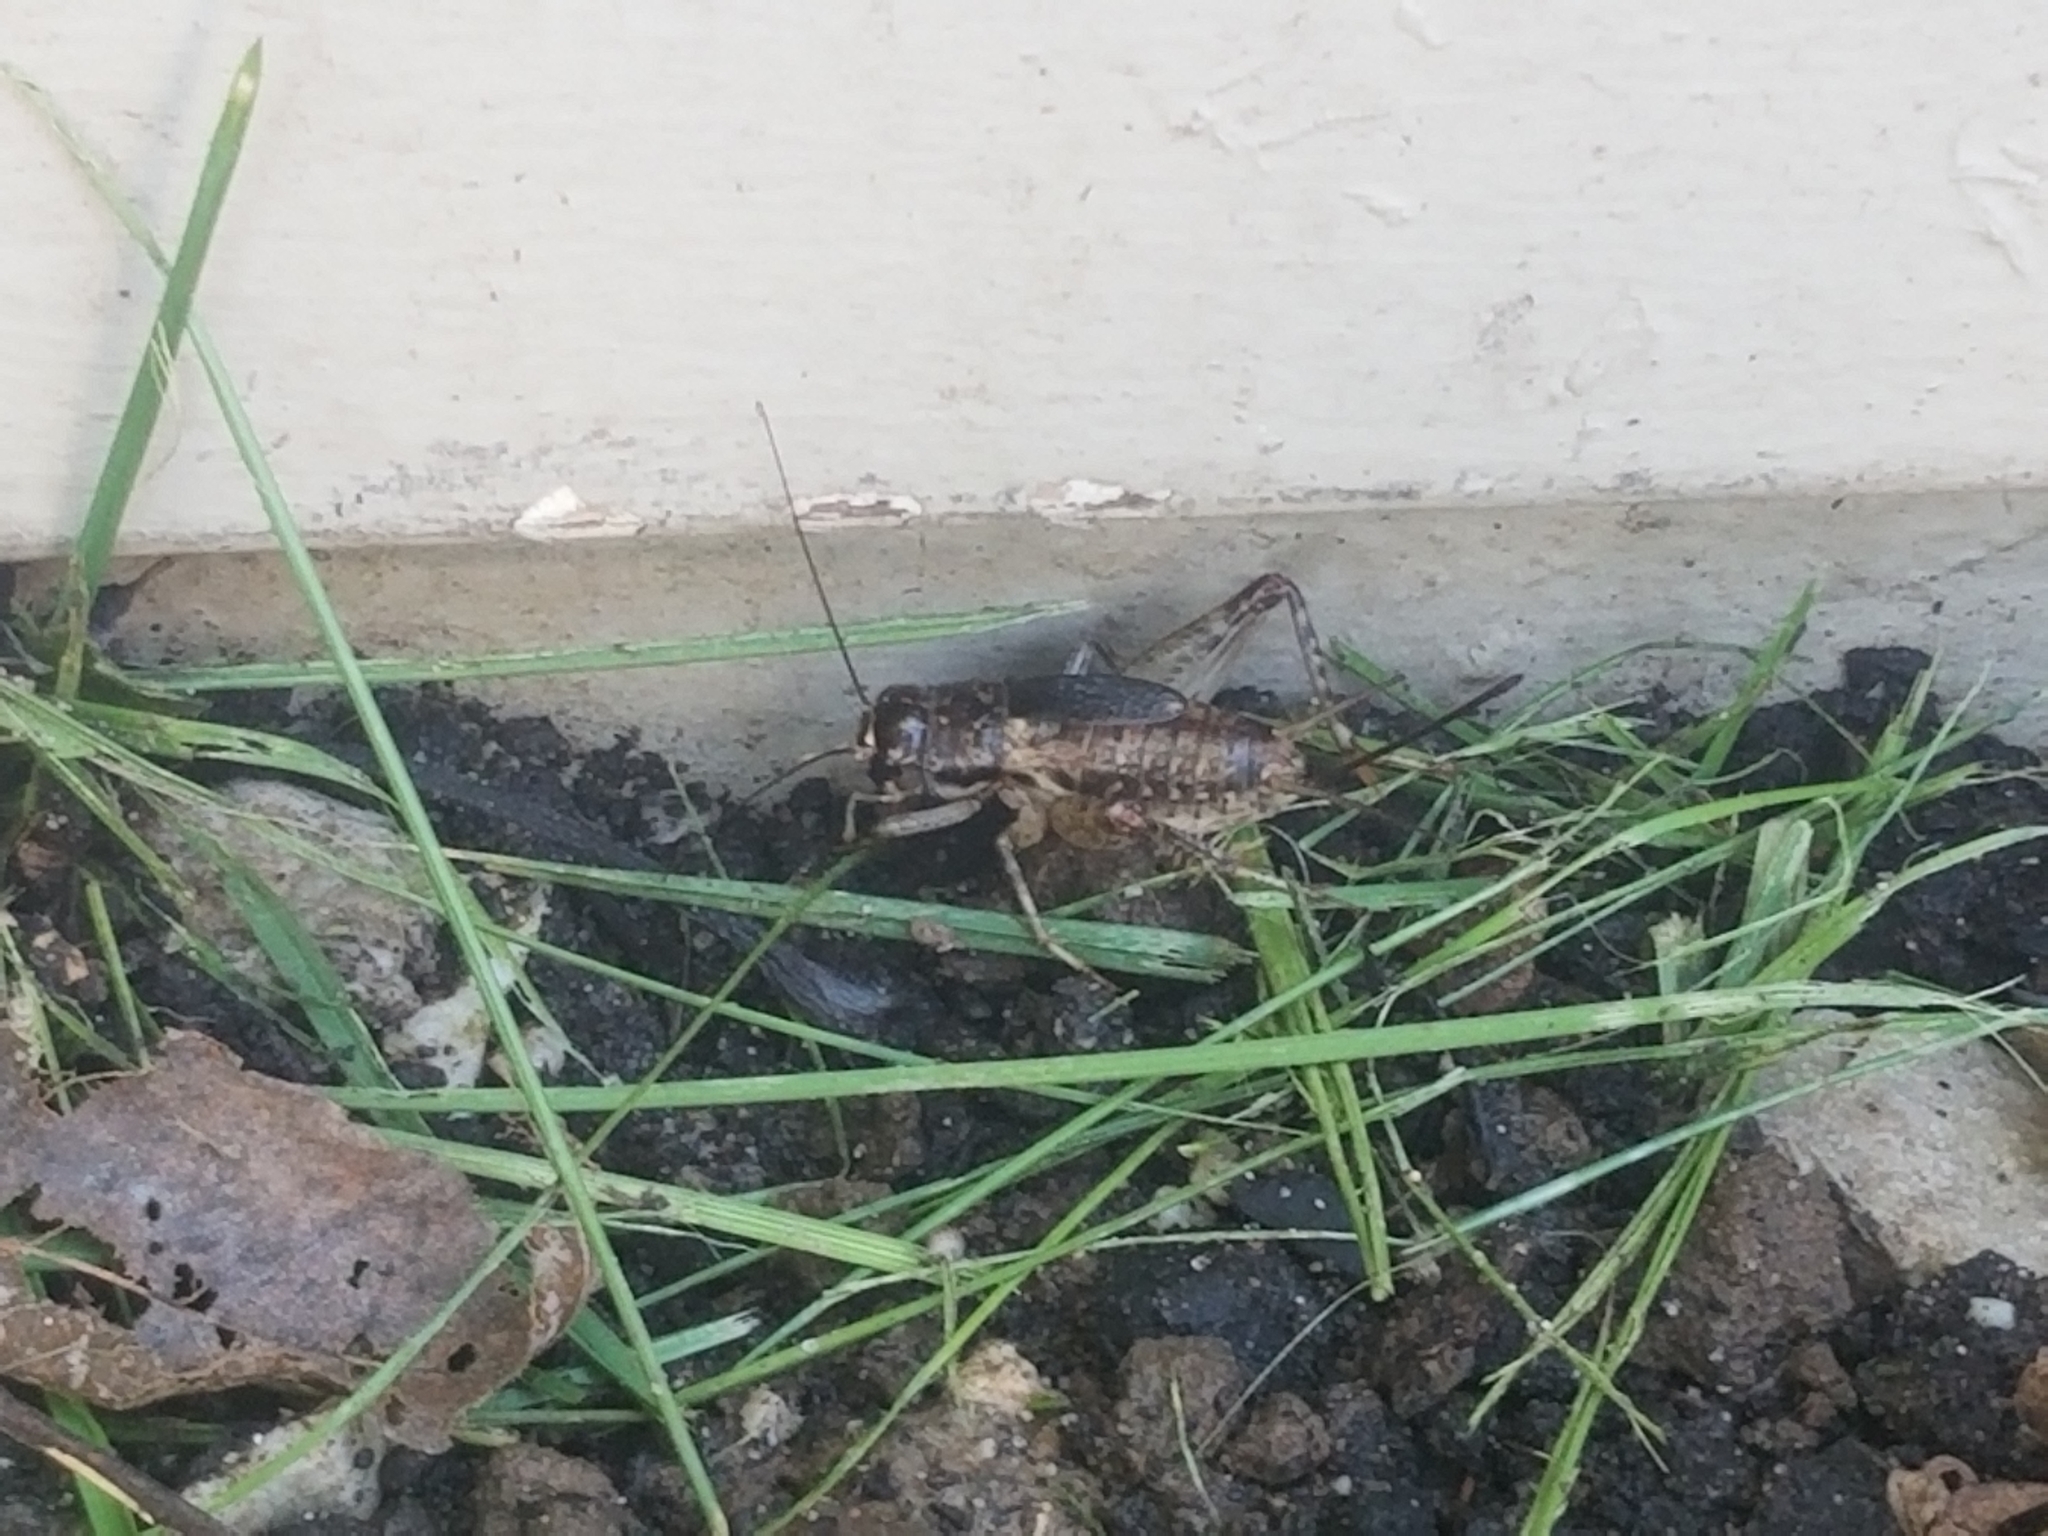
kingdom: Animalia
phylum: Arthropoda
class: Insecta
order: Orthoptera
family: Gryllidae
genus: Velarifictorus
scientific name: Velarifictorus micado
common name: Japanese burrowing cricket
